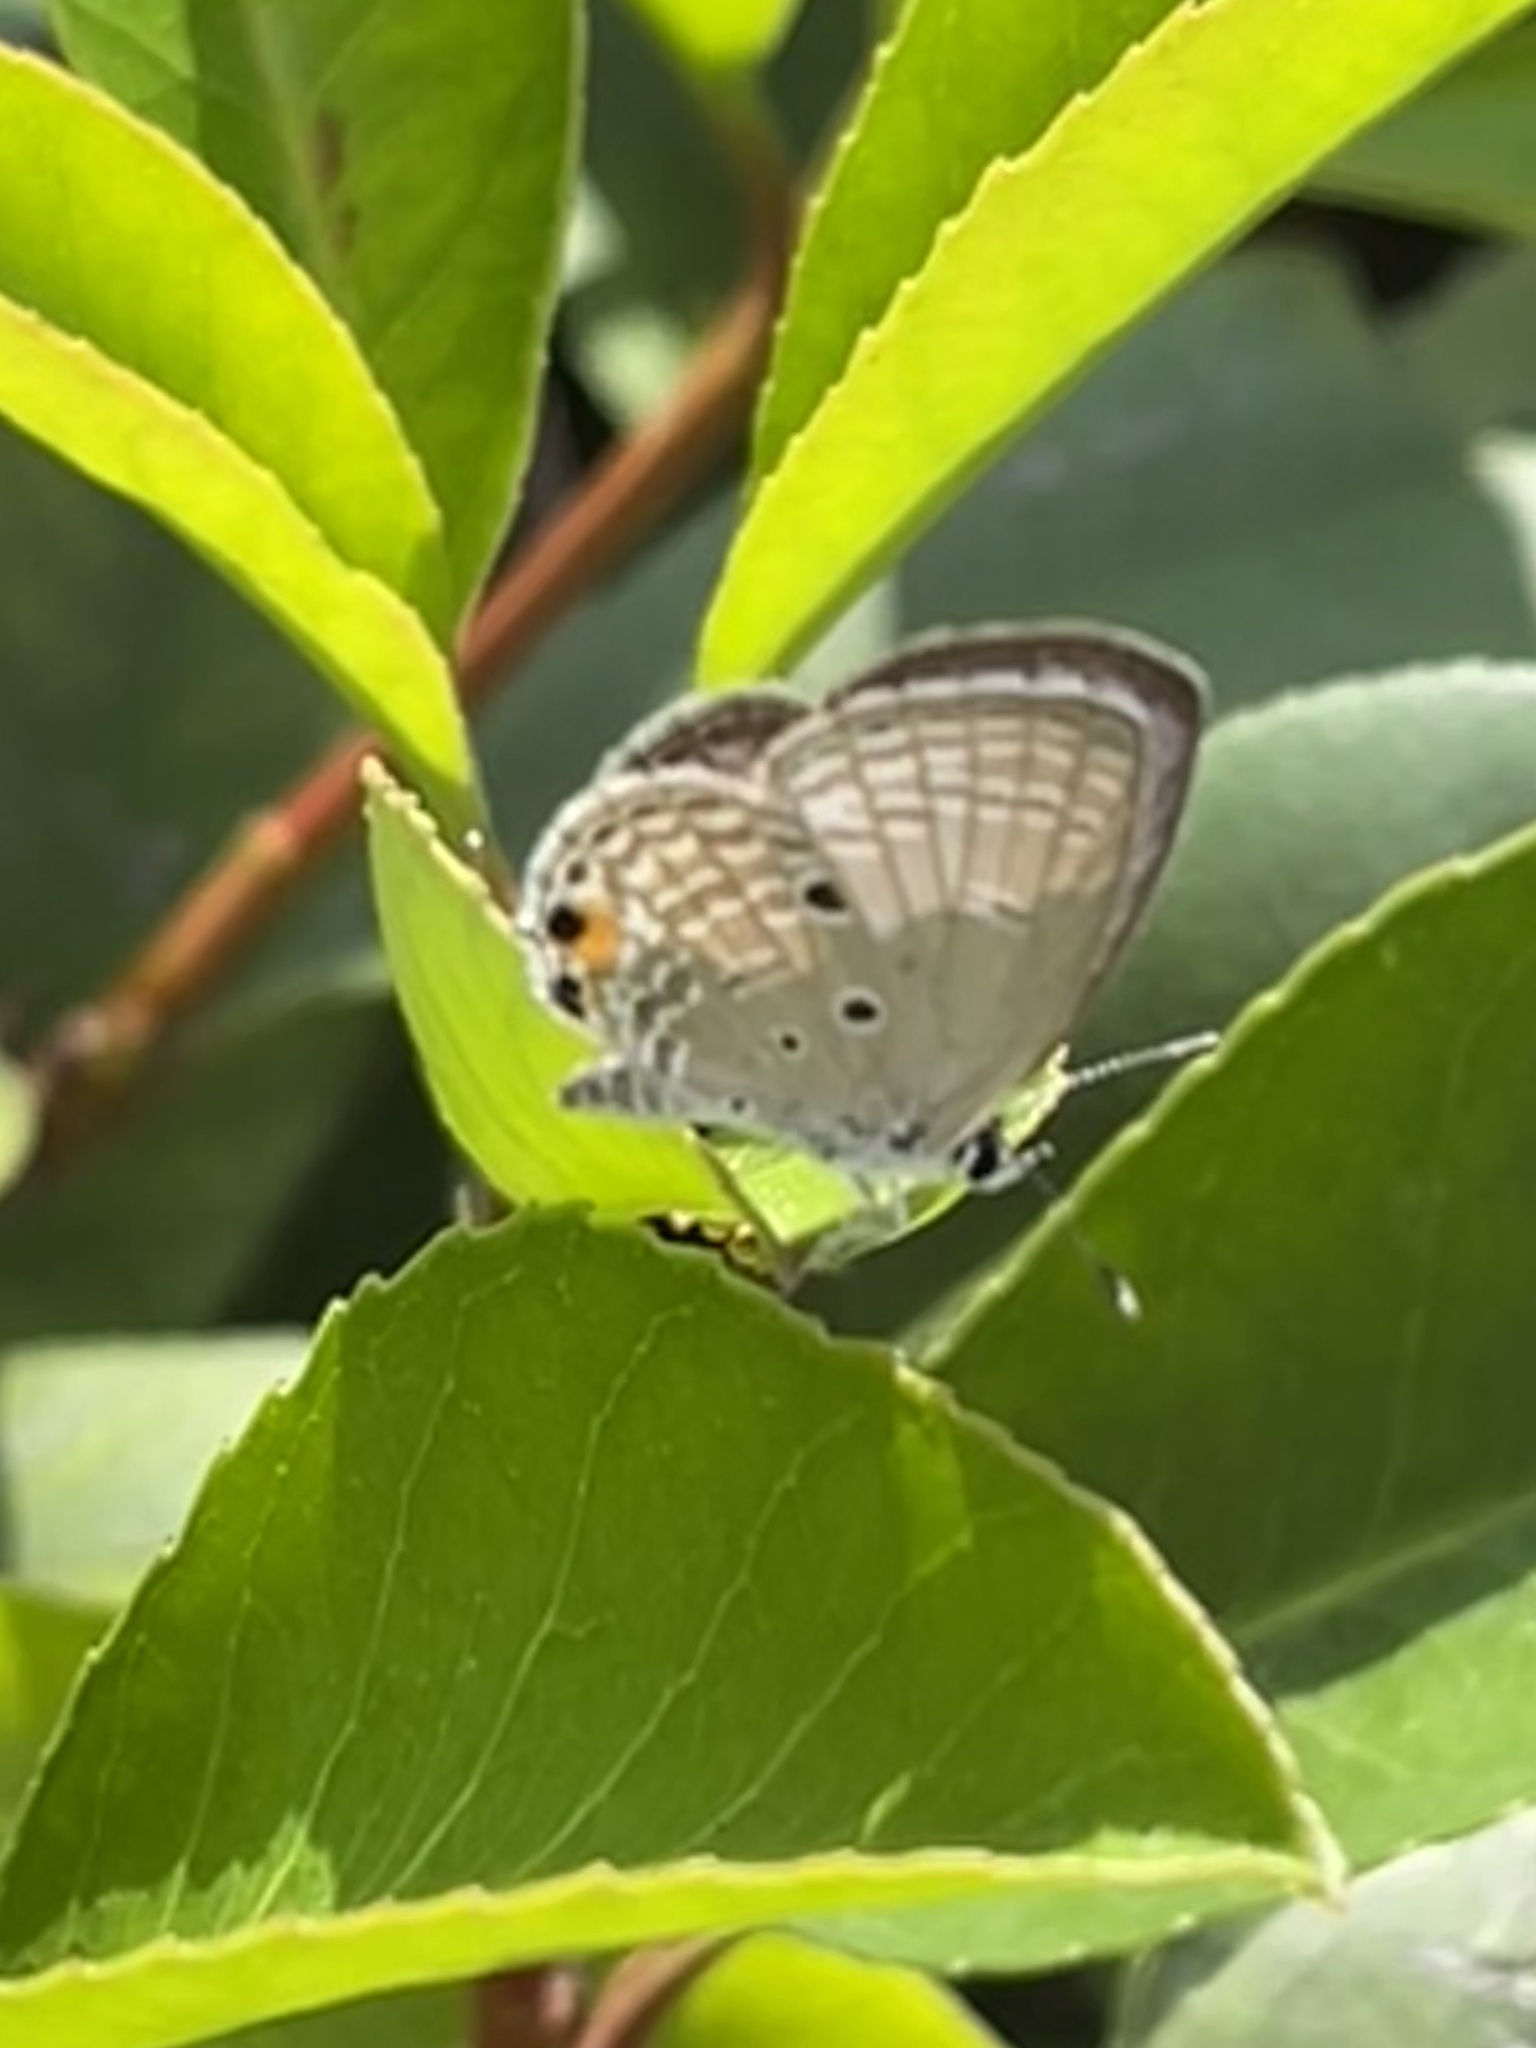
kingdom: Animalia
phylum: Arthropoda
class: Insecta
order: Lepidoptera
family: Lycaenidae
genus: Luthrodes
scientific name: Luthrodes pandava
